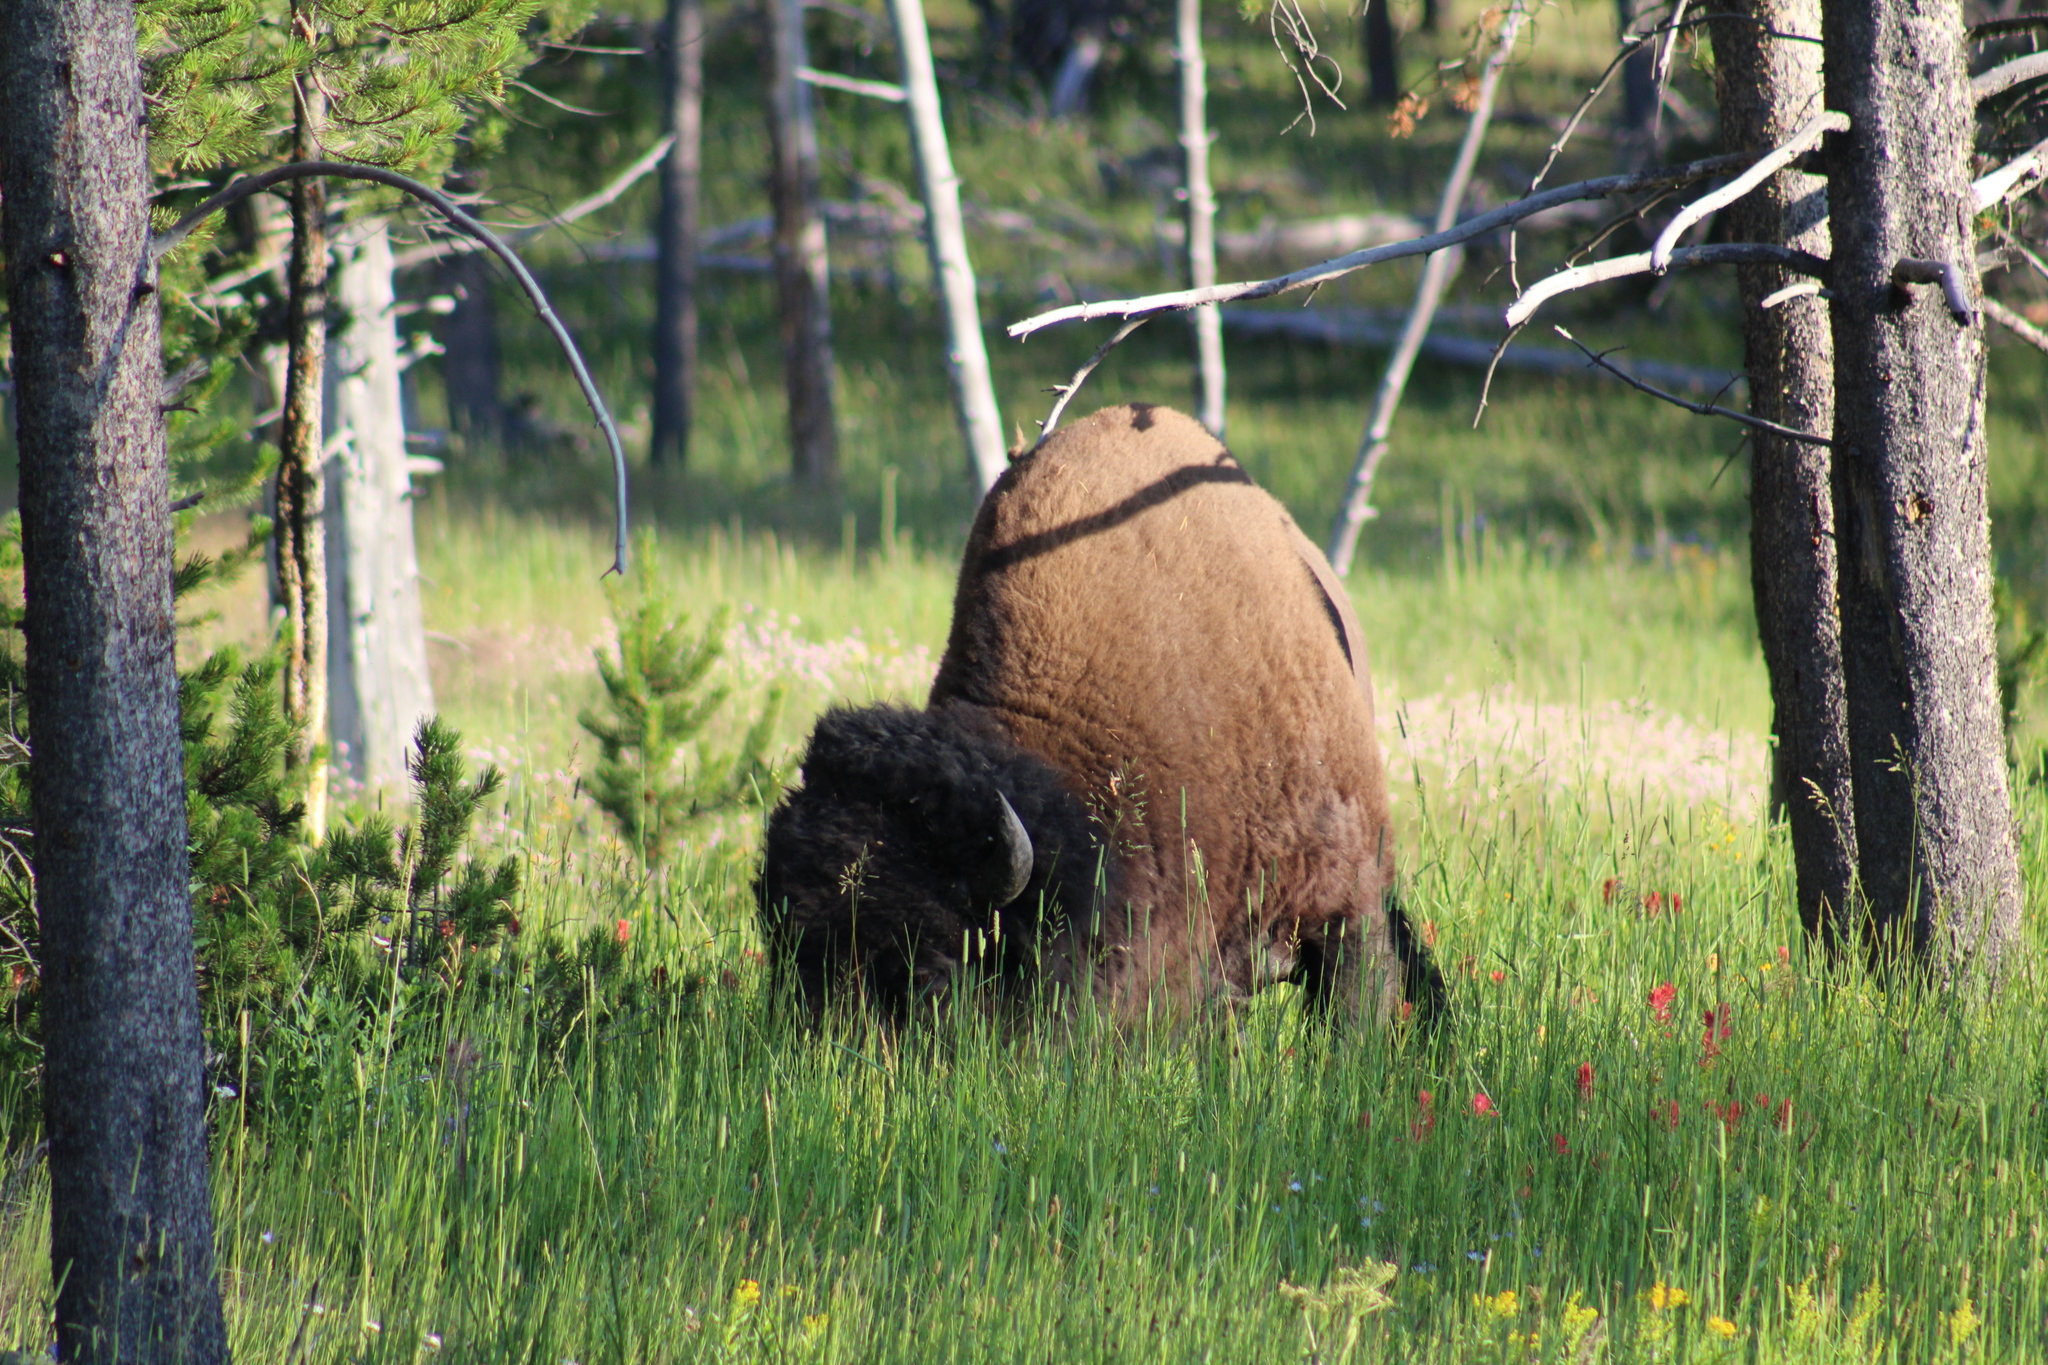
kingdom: Animalia
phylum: Chordata
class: Mammalia
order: Artiodactyla
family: Bovidae
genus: Bison
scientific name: Bison bison
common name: American bison
